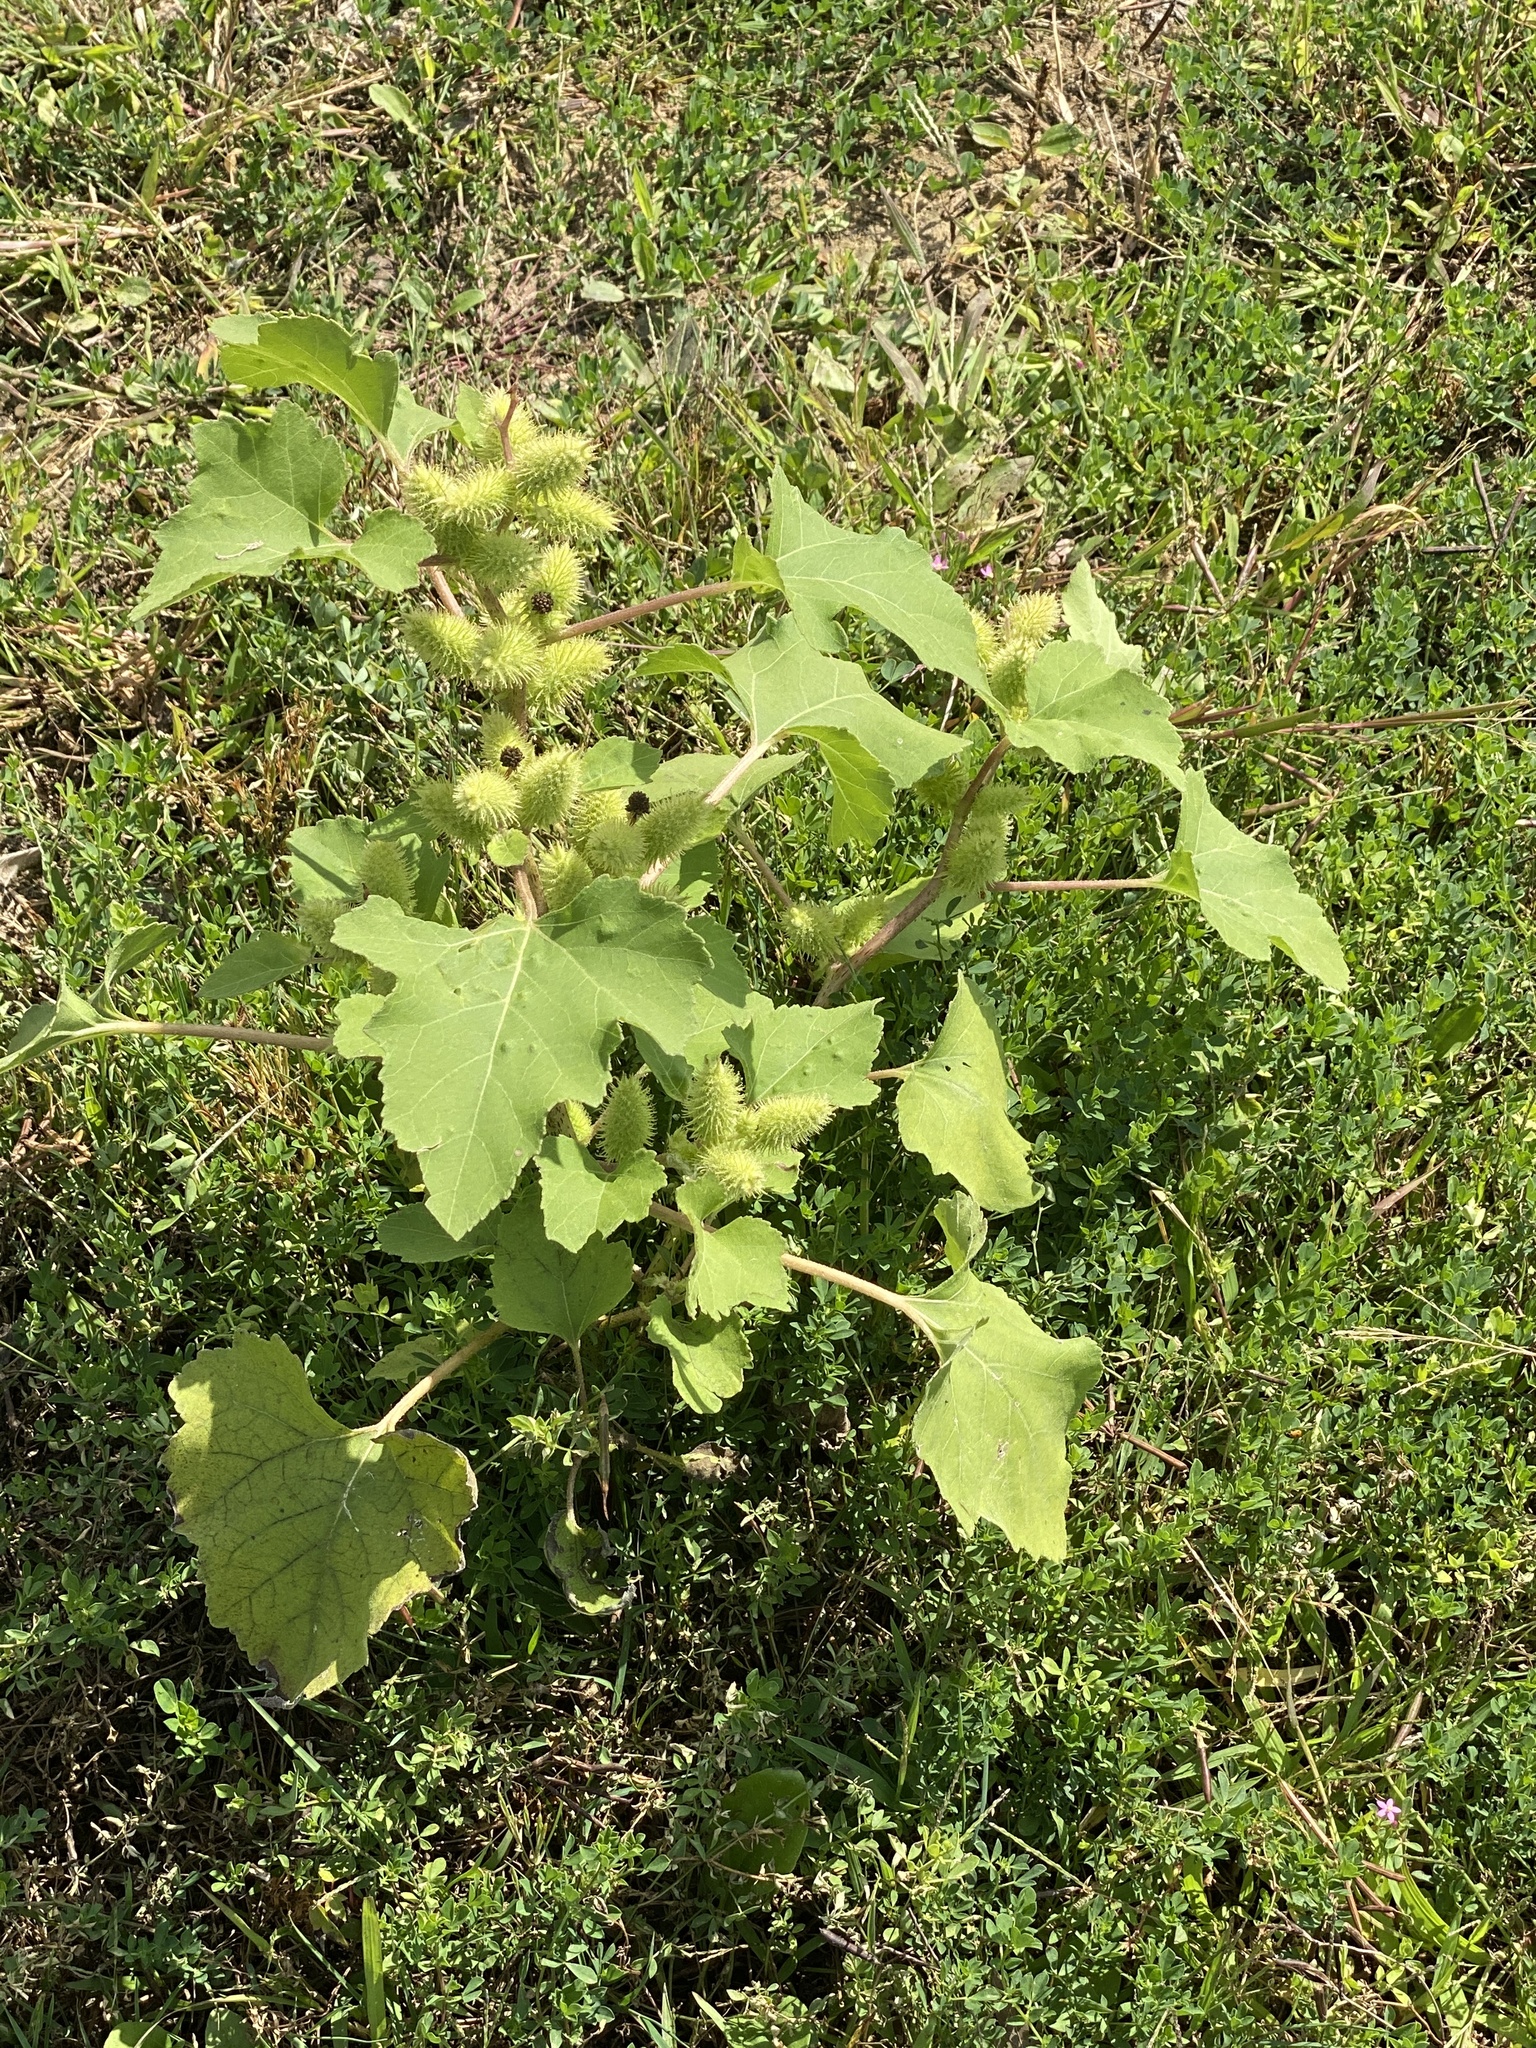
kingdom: Plantae
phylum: Tracheophyta
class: Magnoliopsida
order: Asterales
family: Asteraceae
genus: Xanthium
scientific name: Xanthium strumarium
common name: Rough cocklebur
